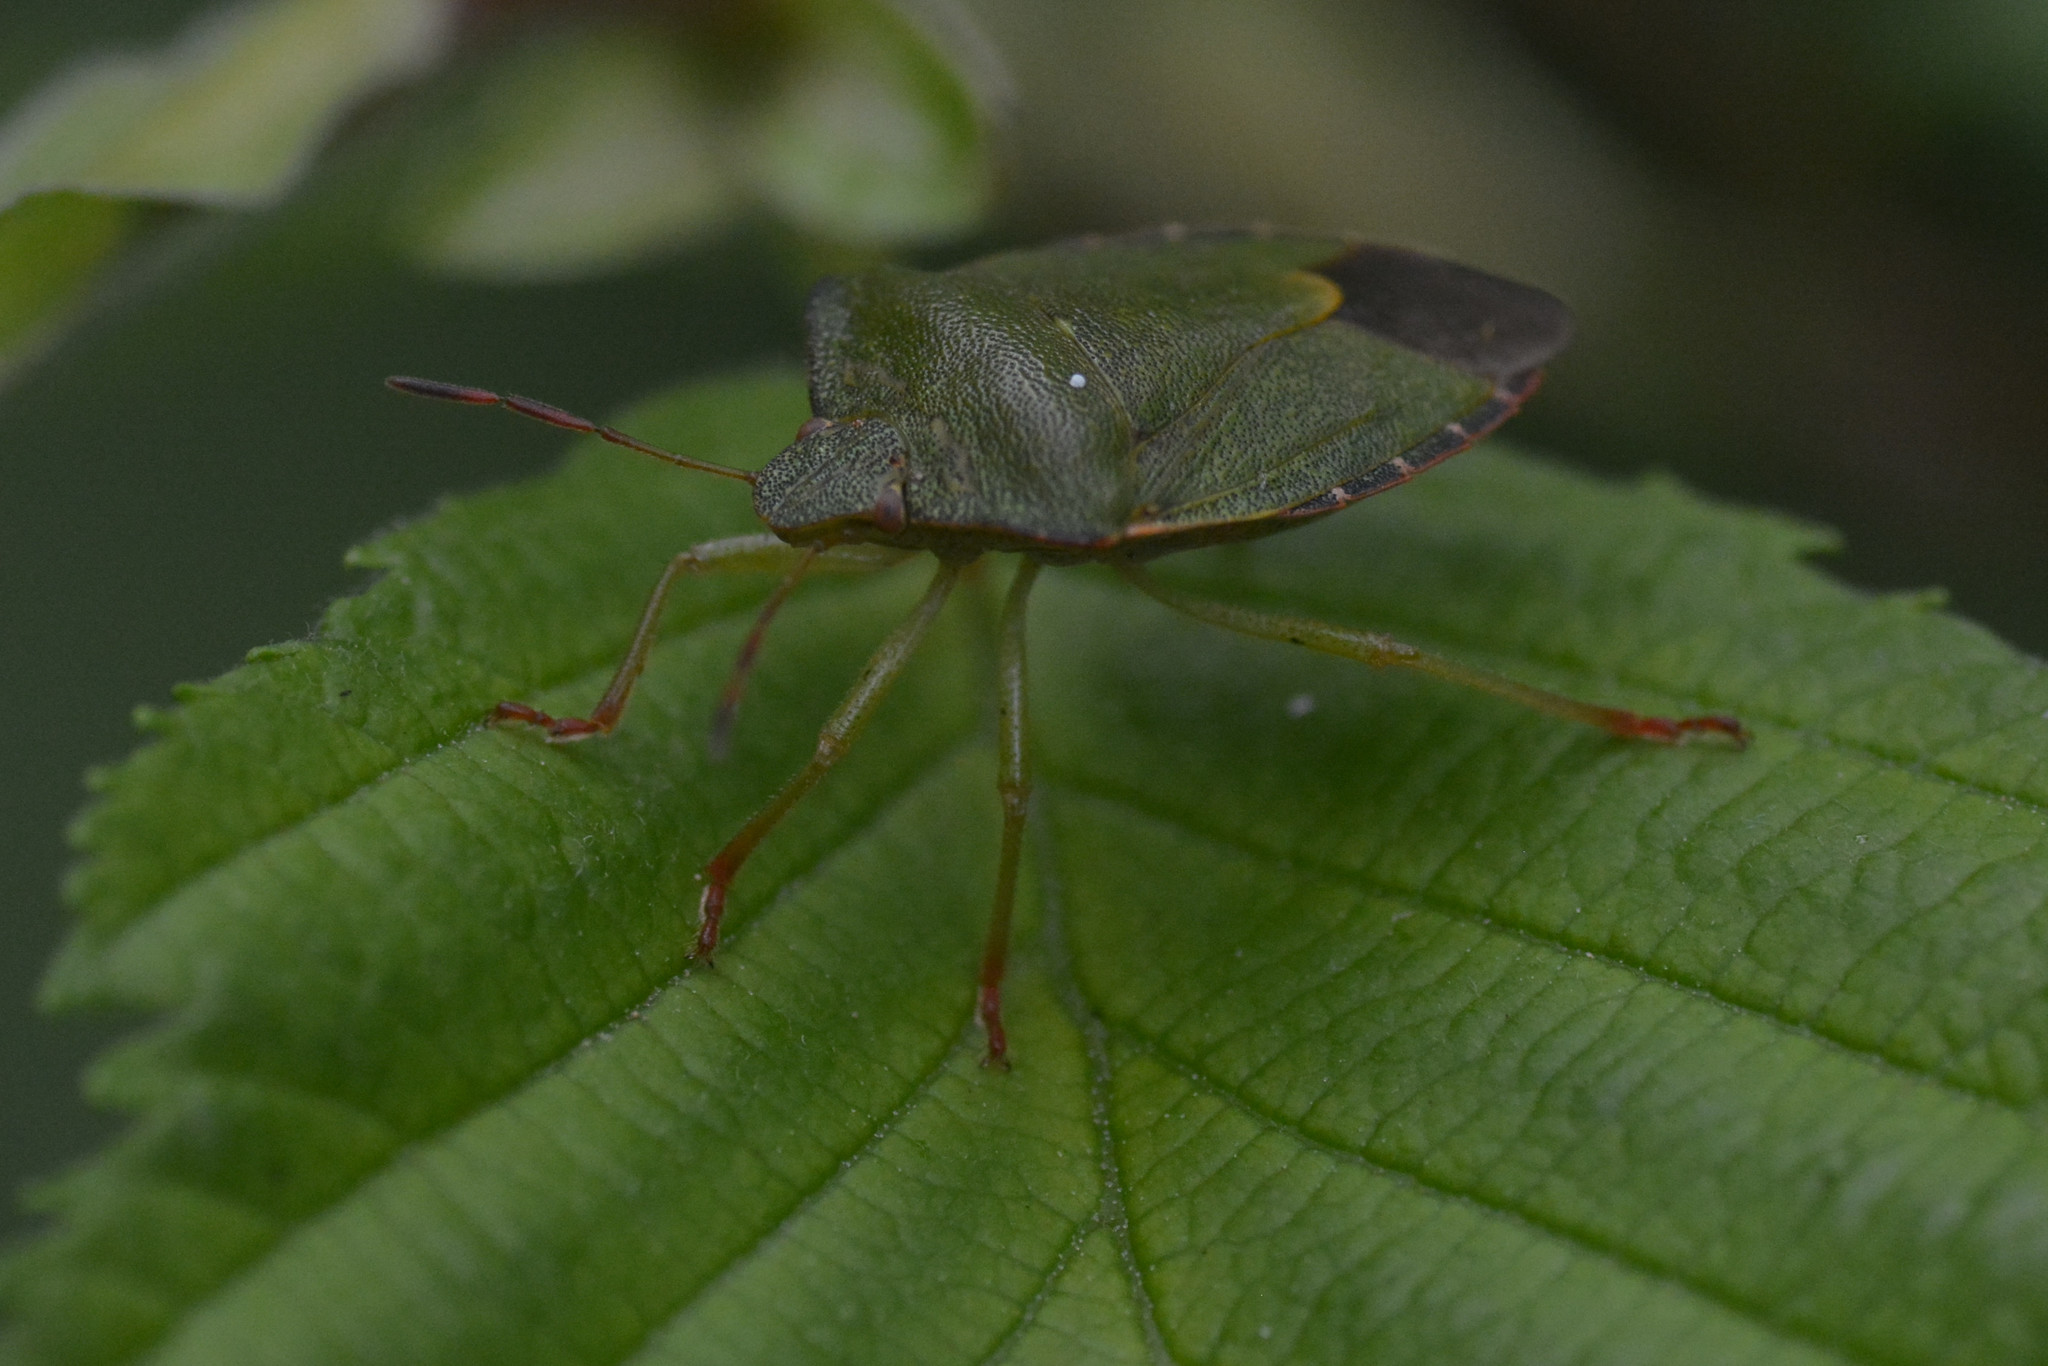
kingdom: Animalia
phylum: Arthropoda
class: Insecta
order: Hemiptera
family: Pentatomidae
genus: Palomena
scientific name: Palomena prasina
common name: Green shieldbug
